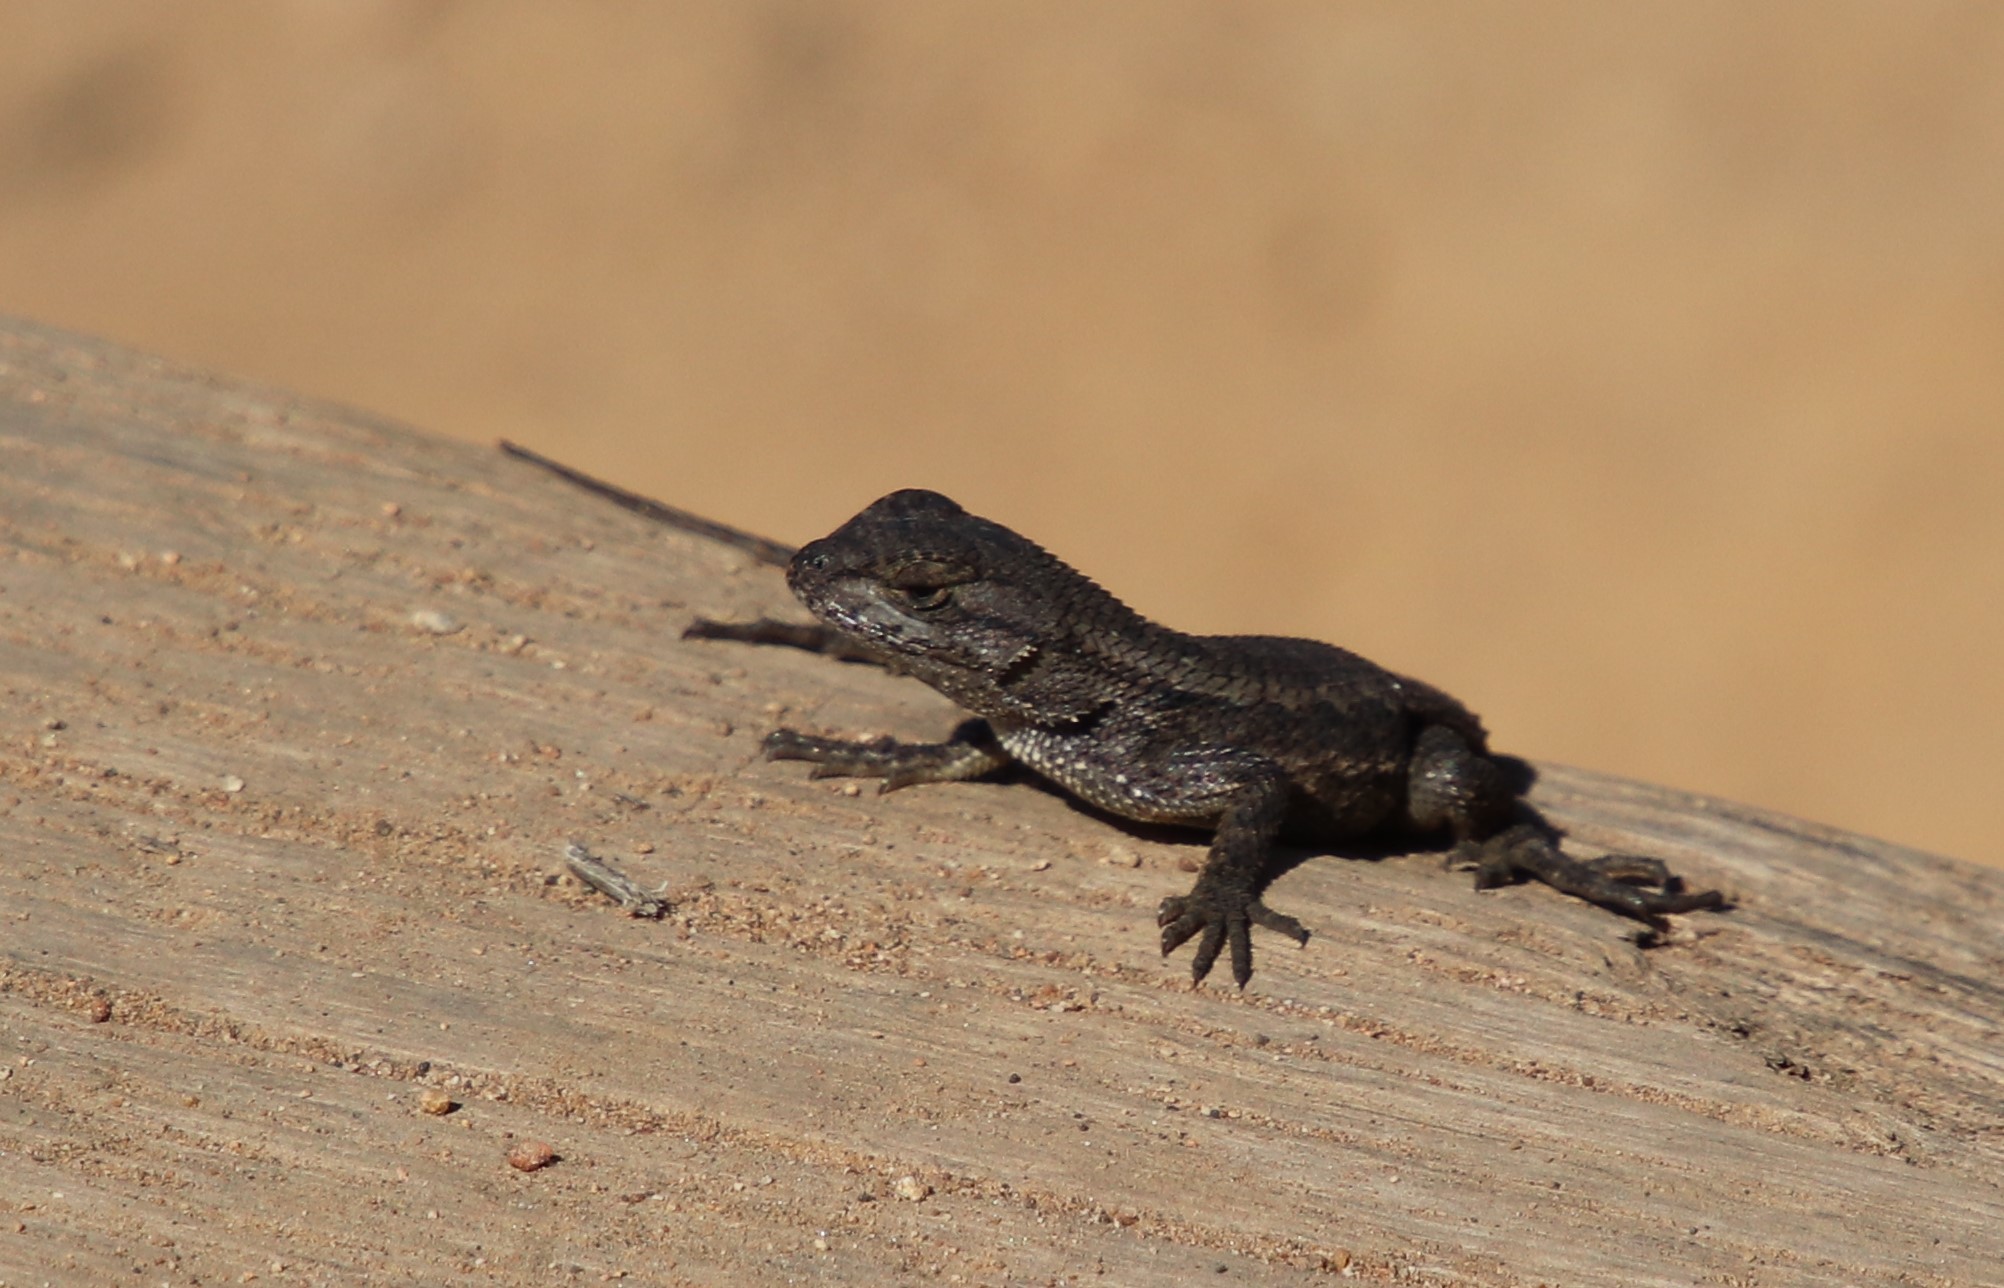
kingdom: Animalia
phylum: Chordata
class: Squamata
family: Phrynosomatidae
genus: Sceloporus
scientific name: Sceloporus occidentalis
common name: Western fence lizard
